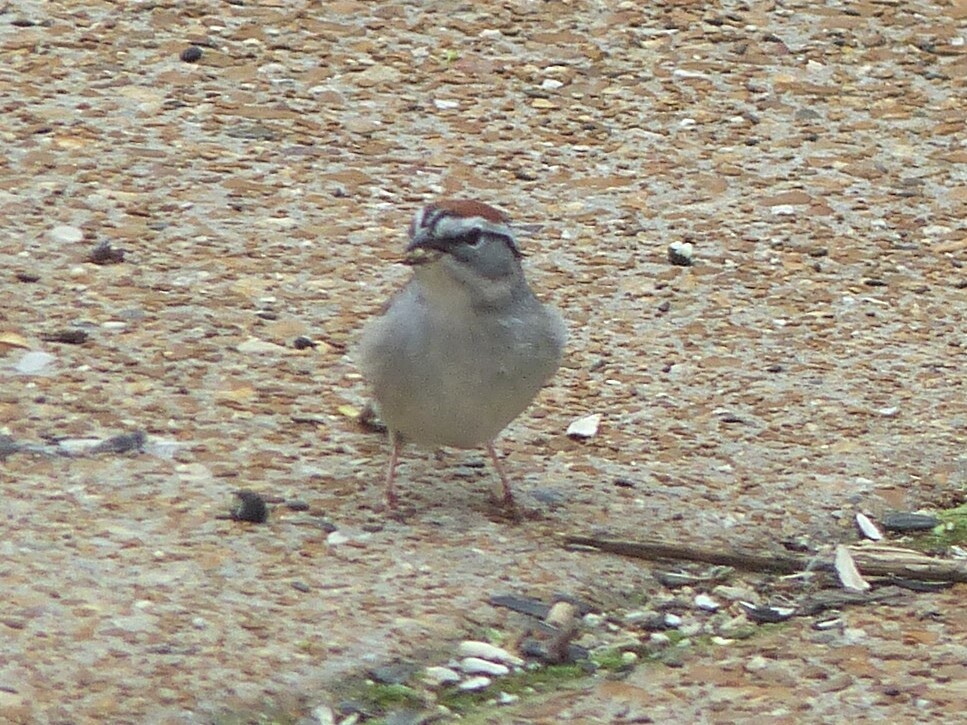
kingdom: Animalia
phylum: Chordata
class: Aves
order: Passeriformes
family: Passerellidae
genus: Spizella
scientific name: Spizella passerina
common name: Chipping sparrow
